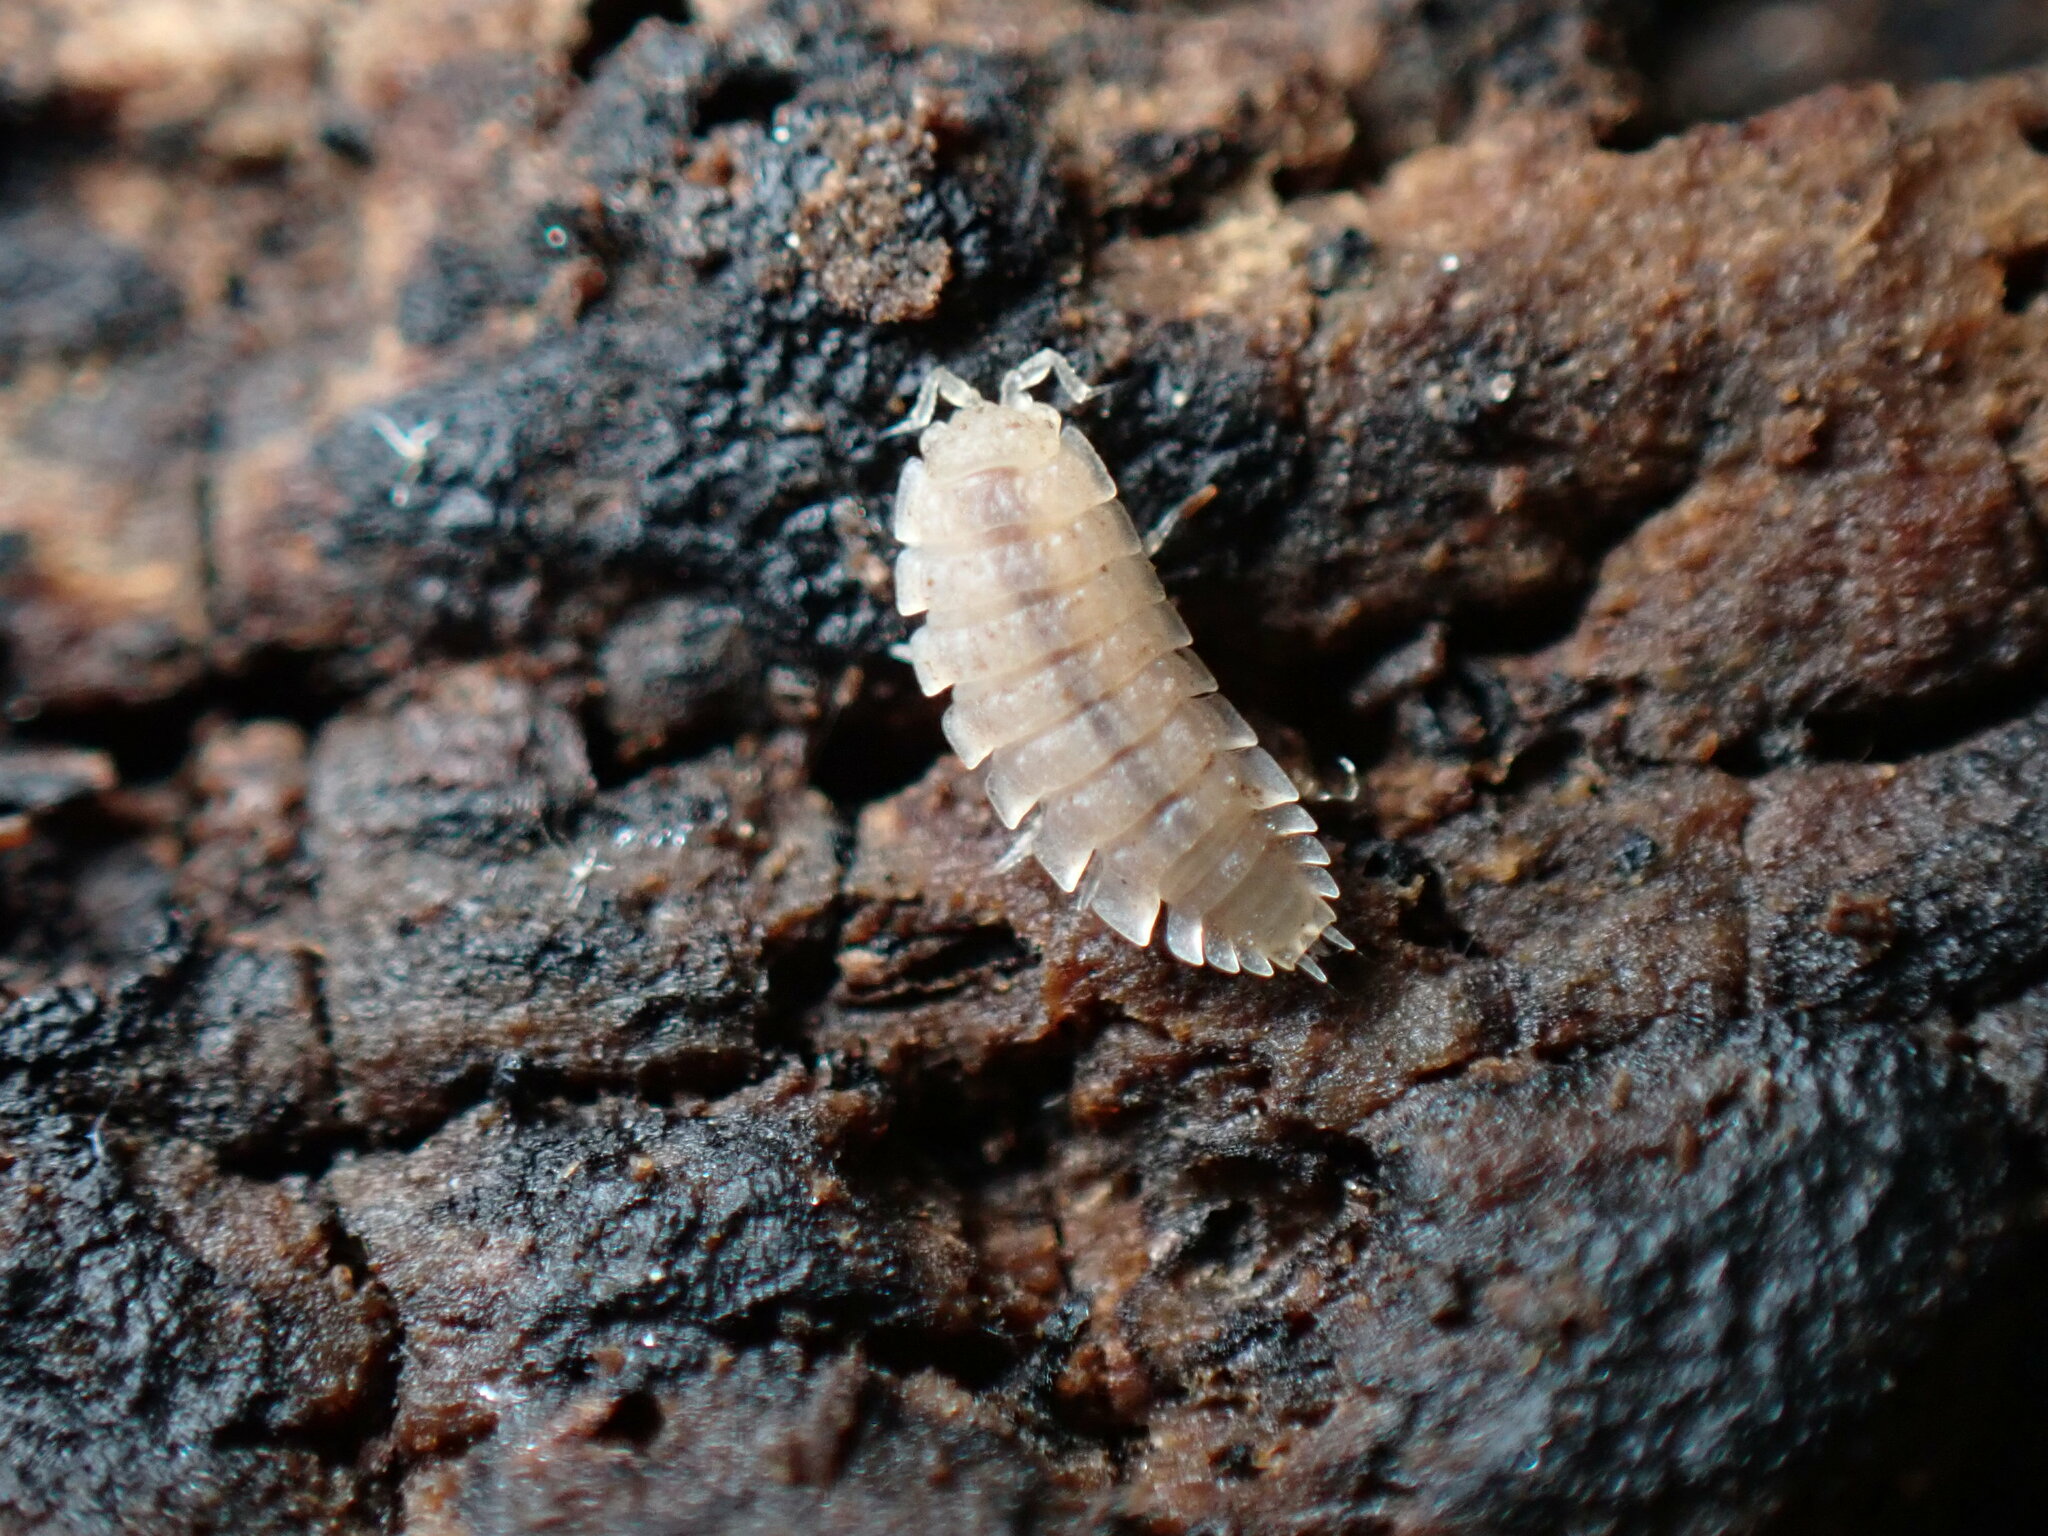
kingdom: Animalia
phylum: Arthropoda
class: Malacostraca
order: Isopoda
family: Trichoniscidae
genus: Haplophthalmus
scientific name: Haplophthalmus danicus
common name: Pillbug
